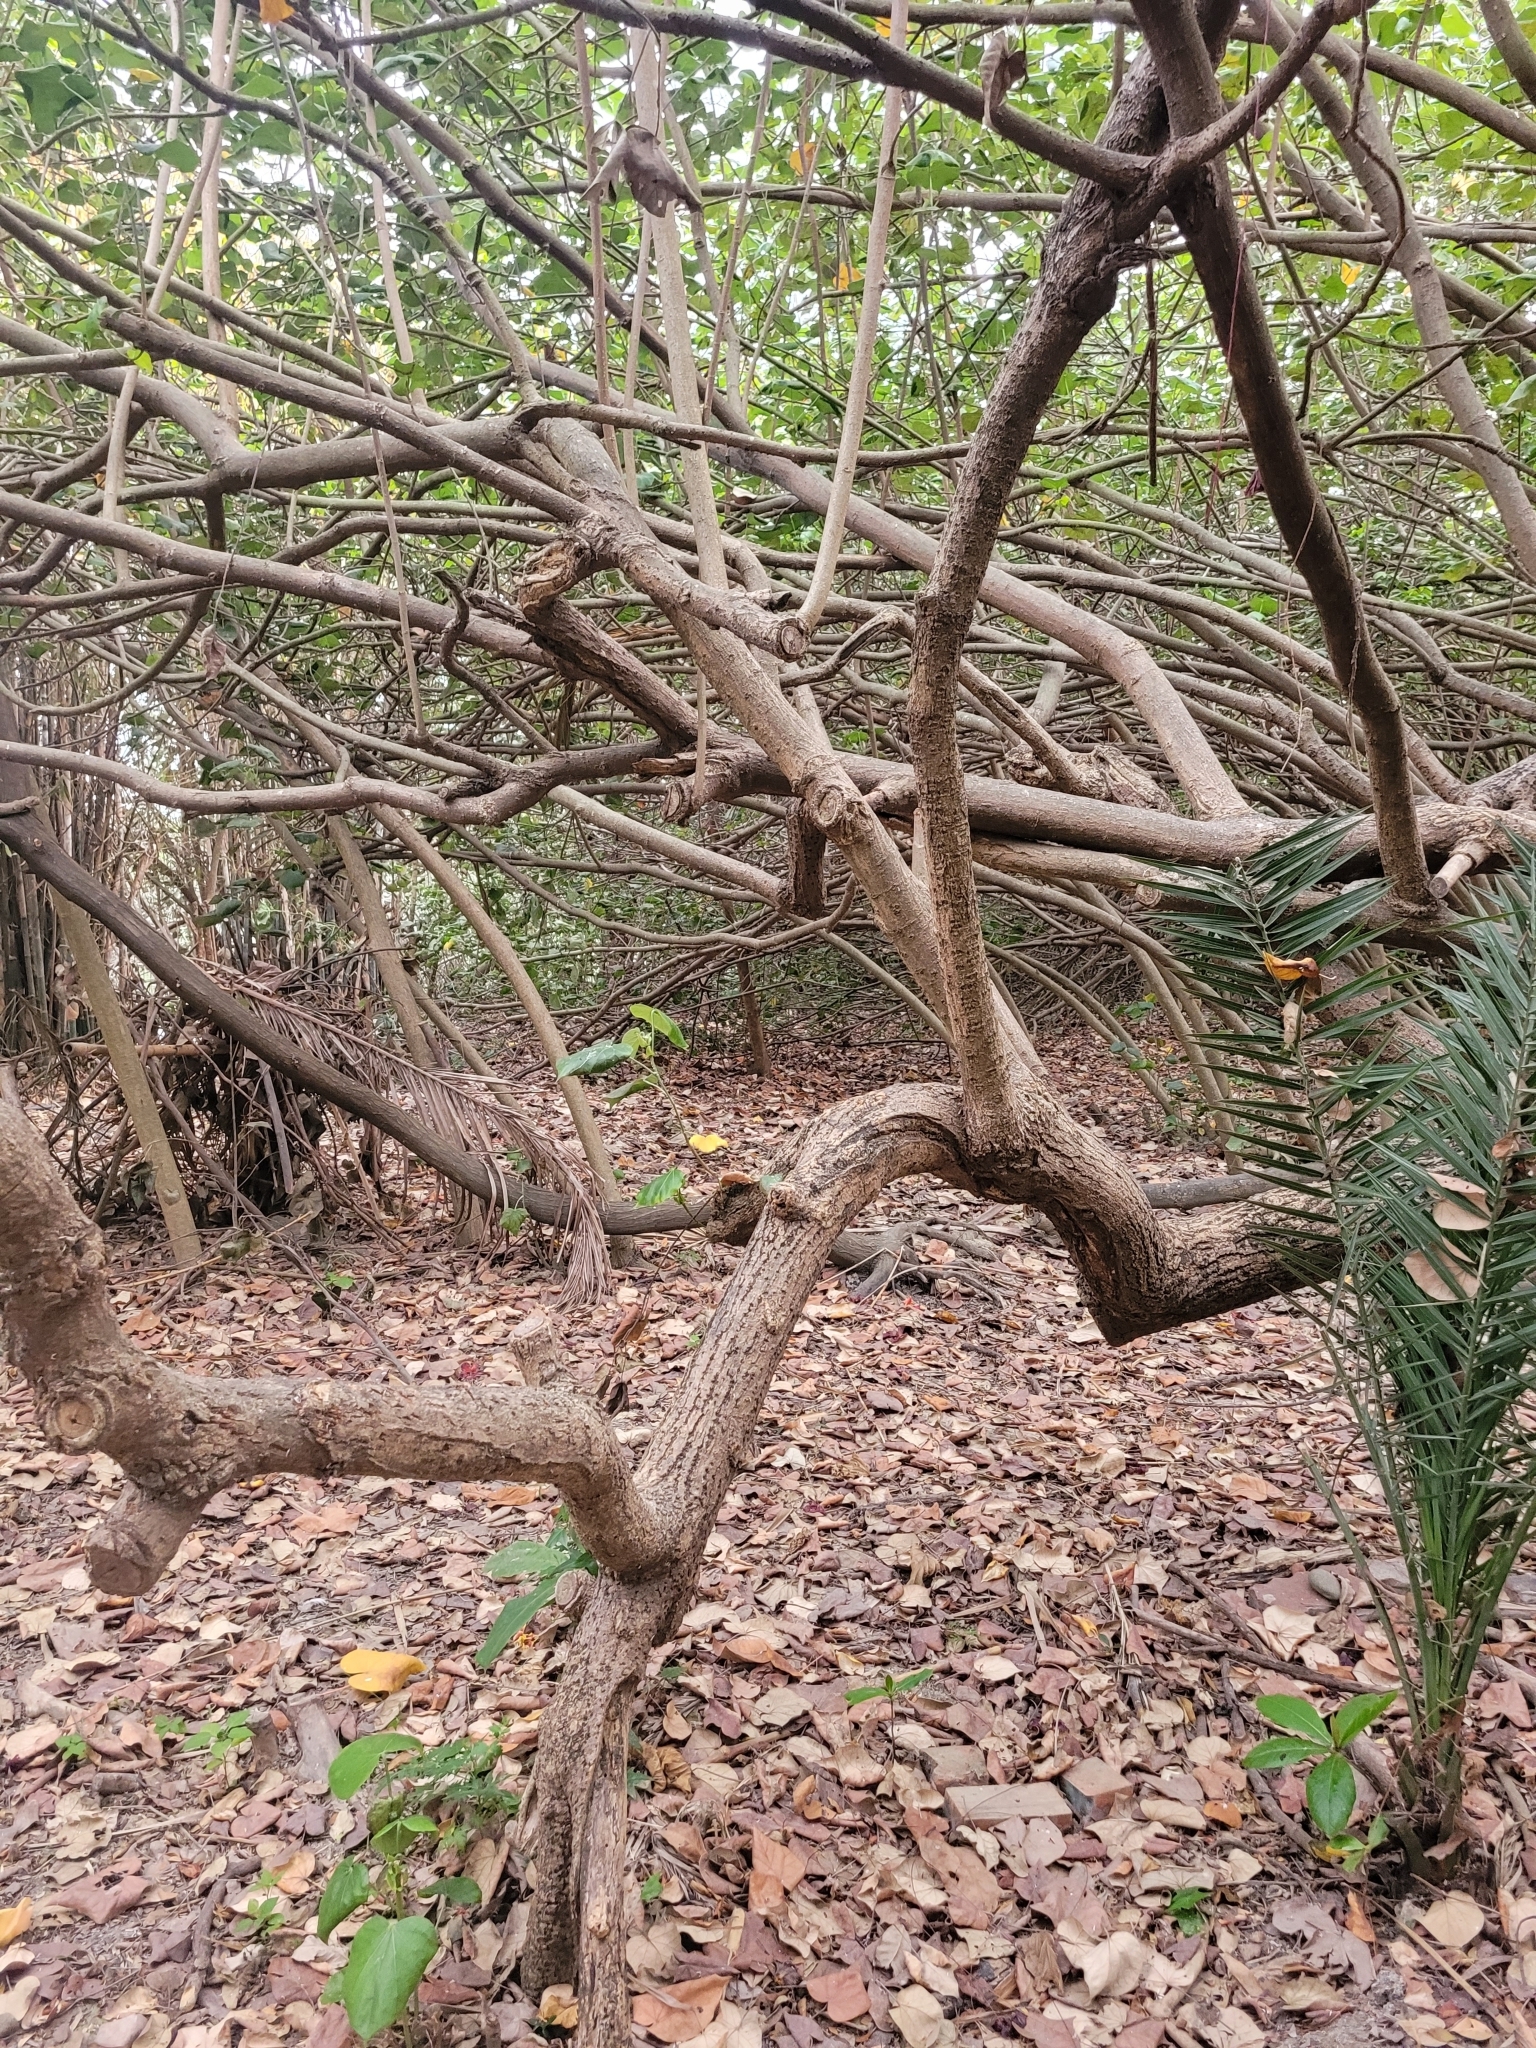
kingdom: Plantae
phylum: Tracheophyta
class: Magnoliopsida
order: Malvales
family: Malvaceae
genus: Talipariti
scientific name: Talipariti tiliaceum
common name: Sea hibiscus
